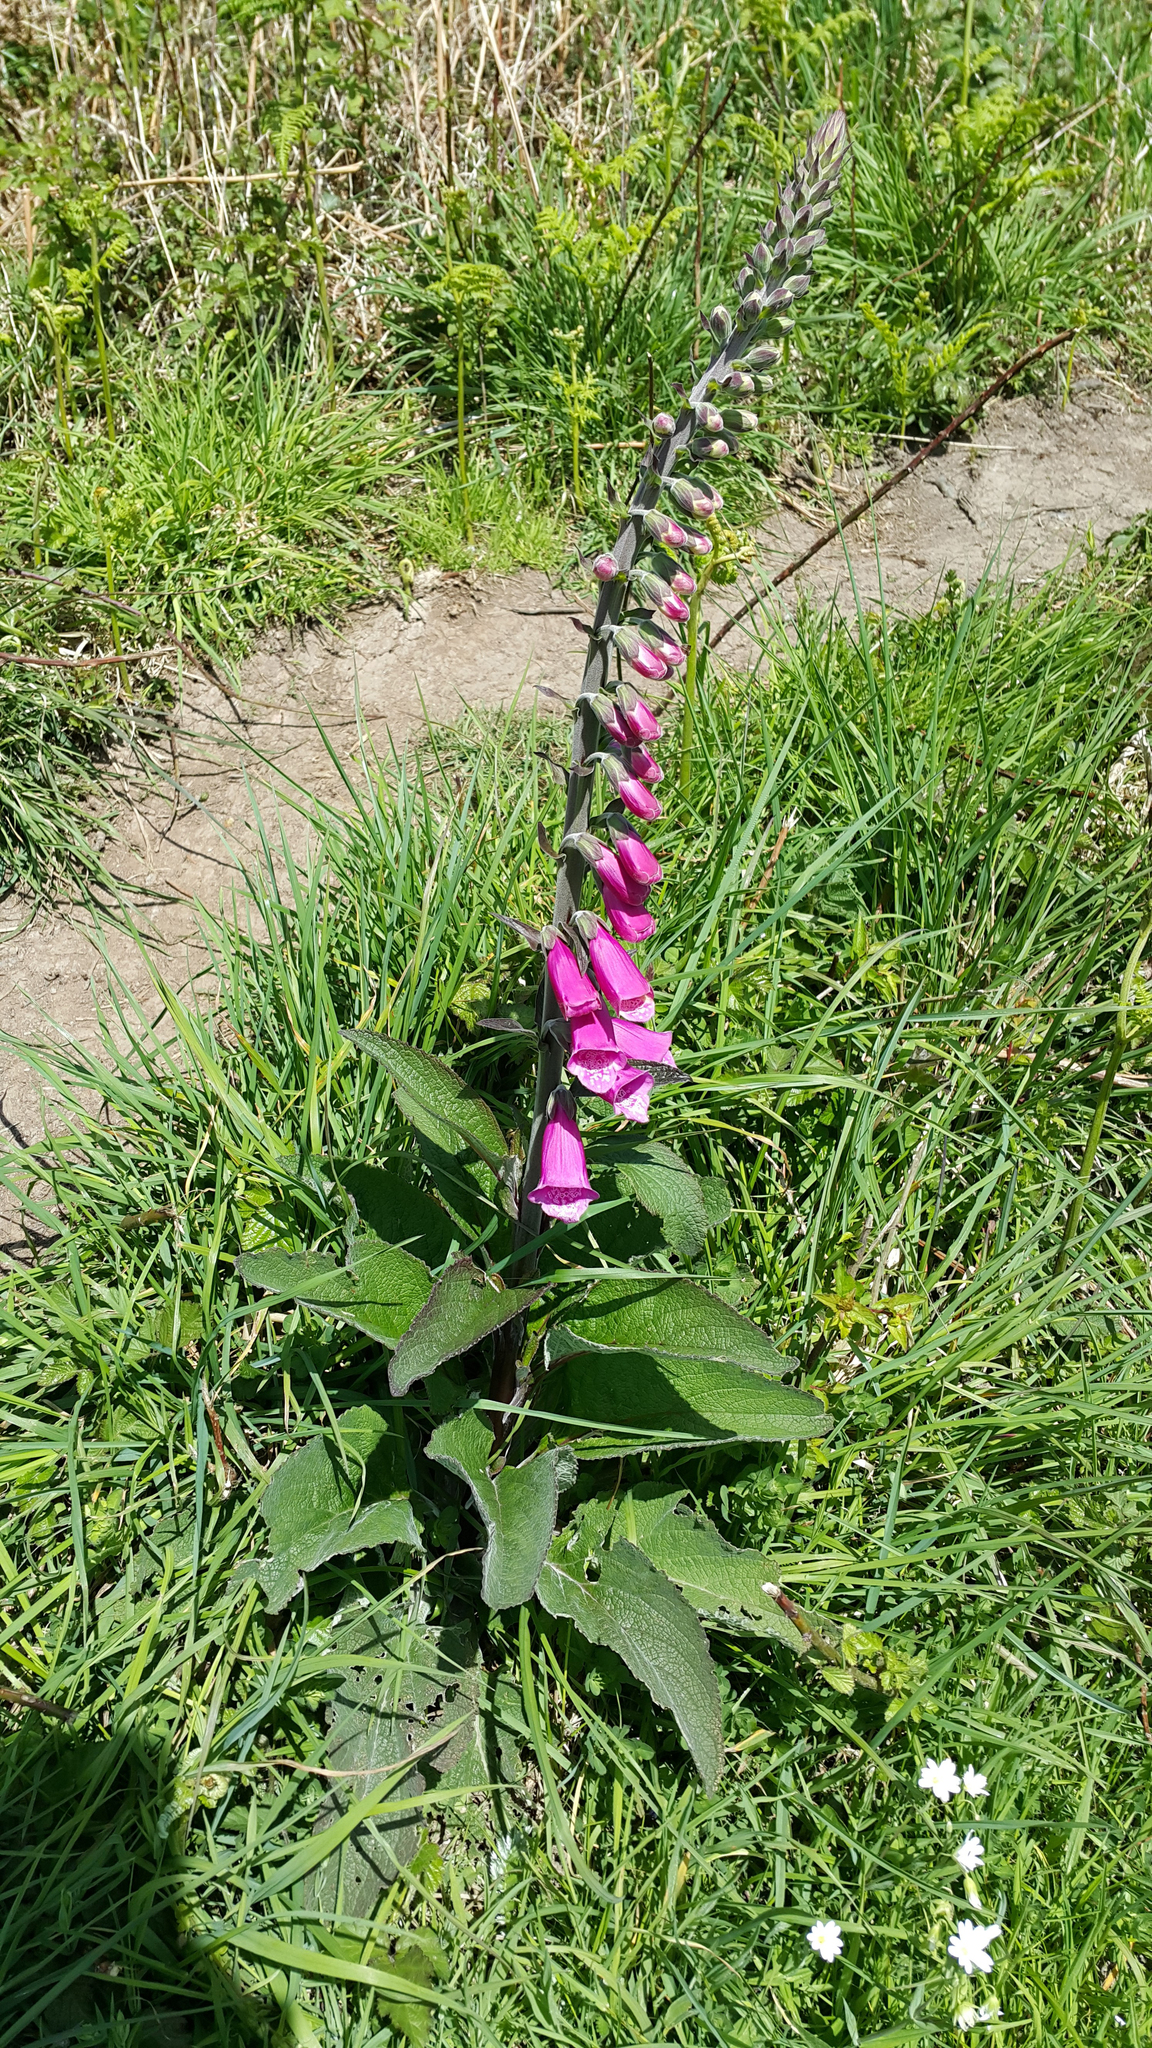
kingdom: Plantae
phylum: Tracheophyta
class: Magnoliopsida
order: Lamiales
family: Plantaginaceae
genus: Digitalis
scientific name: Digitalis purpurea
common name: Foxglove
